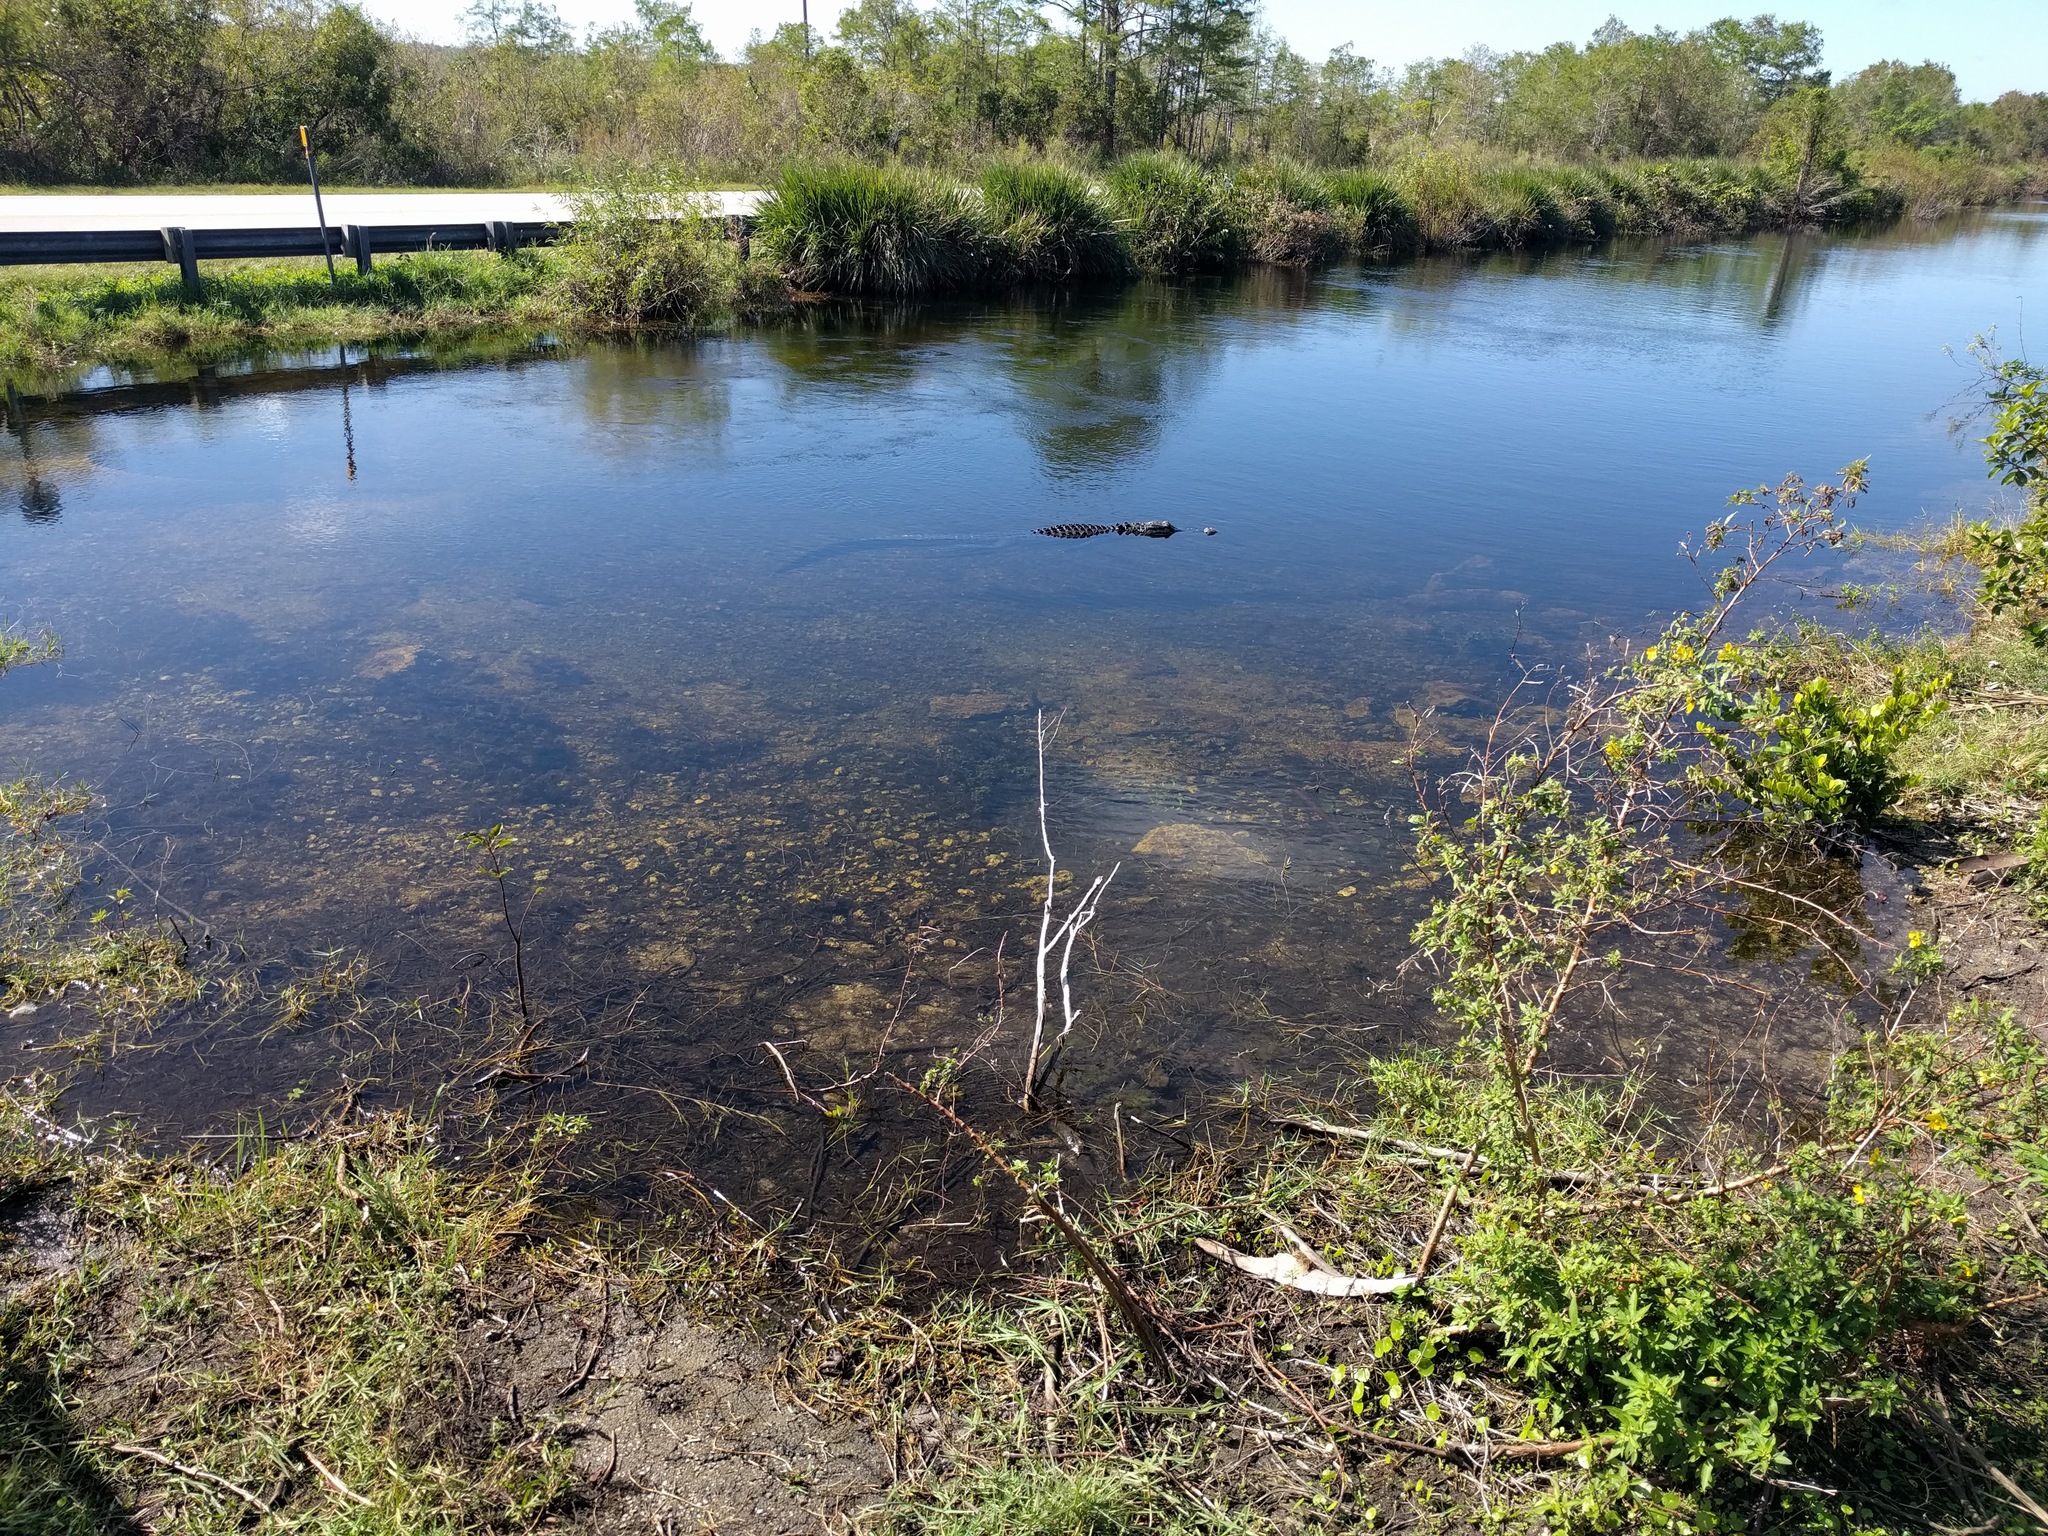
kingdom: Animalia
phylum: Chordata
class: Crocodylia
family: Alligatoridae
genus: Alligator
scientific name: Alligator mississippiensis
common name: American alligator
